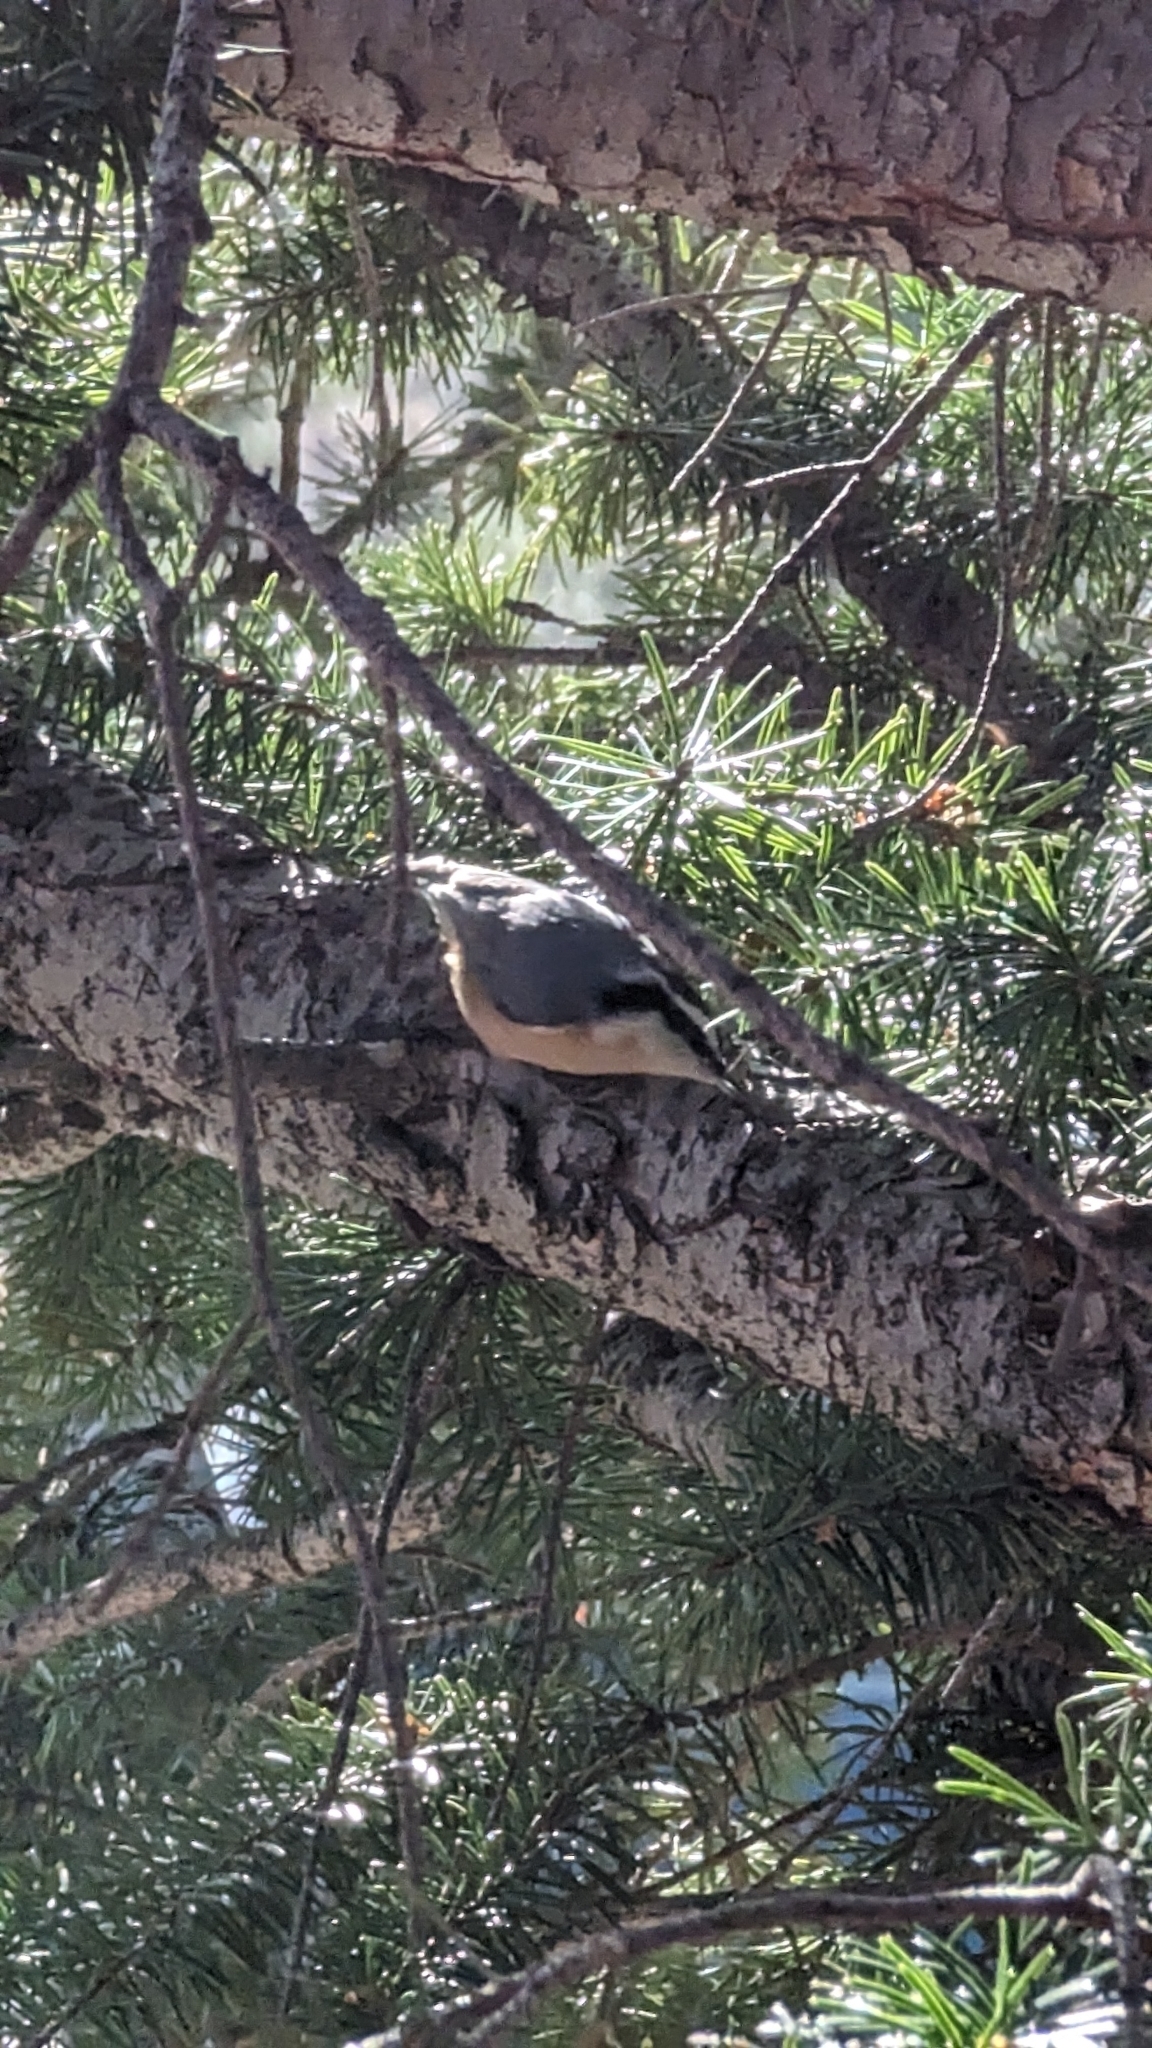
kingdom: Animalia
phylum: Chordata
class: Aves
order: Passeriformes
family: Sittidae
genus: Sitta
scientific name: Sitta canadensis
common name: Red-breasted nuthatch
